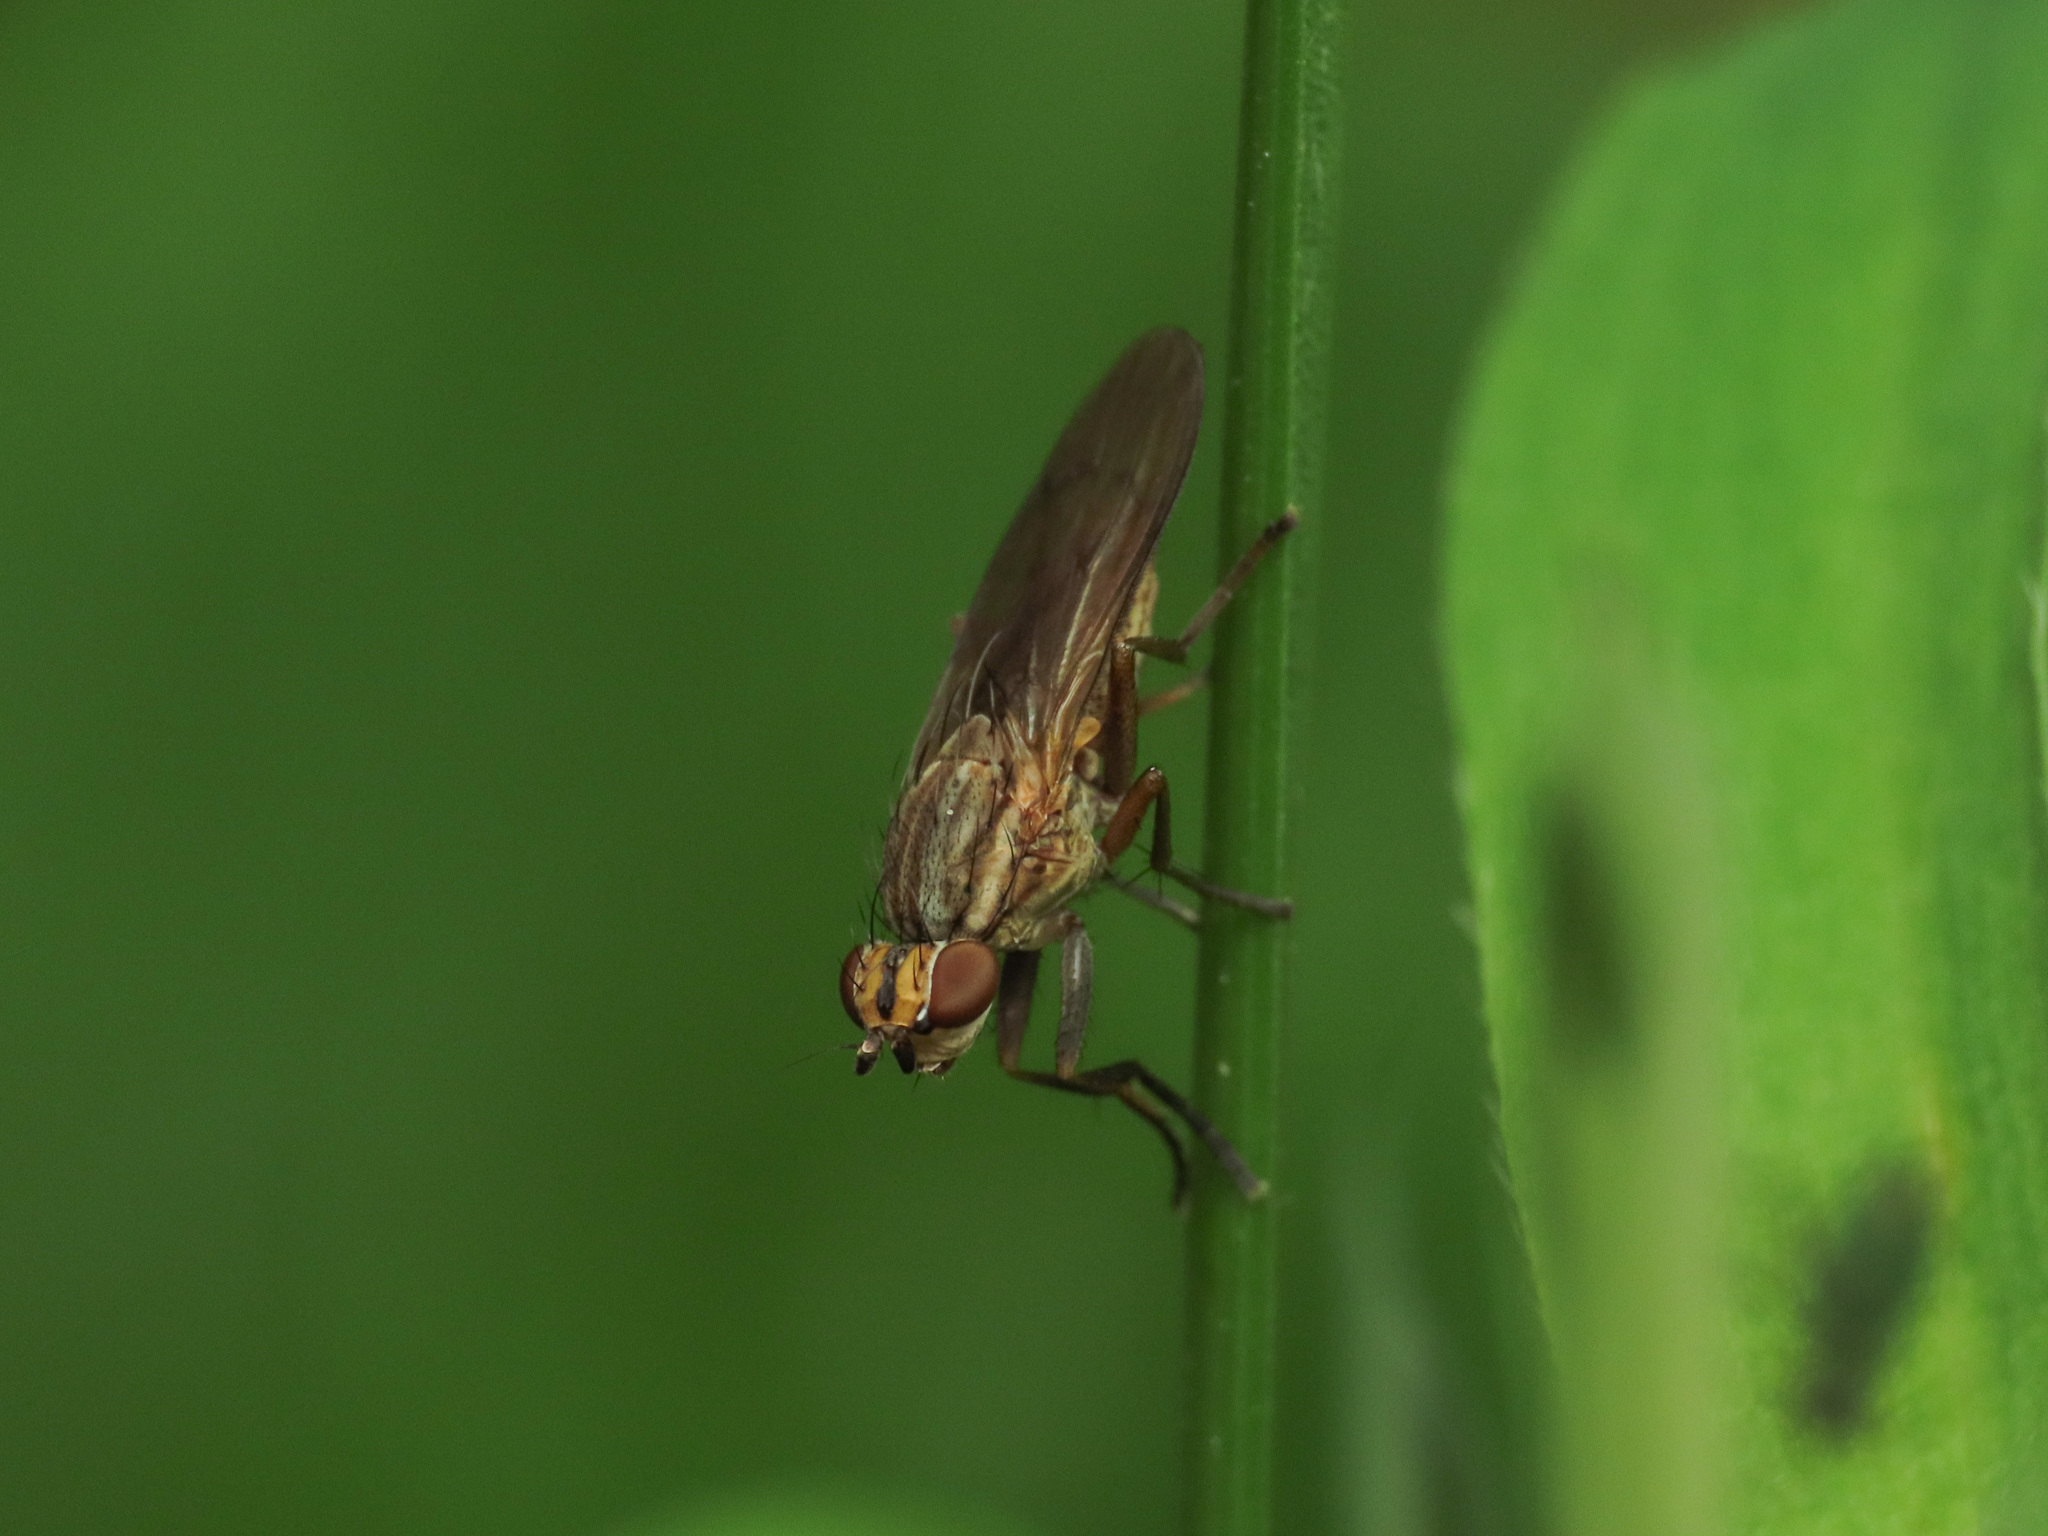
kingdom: Animalia
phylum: Arthropoda
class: Insecta
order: Diptera
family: Sciomyzidae
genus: Pherbellia
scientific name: Pherbellia cinerella
